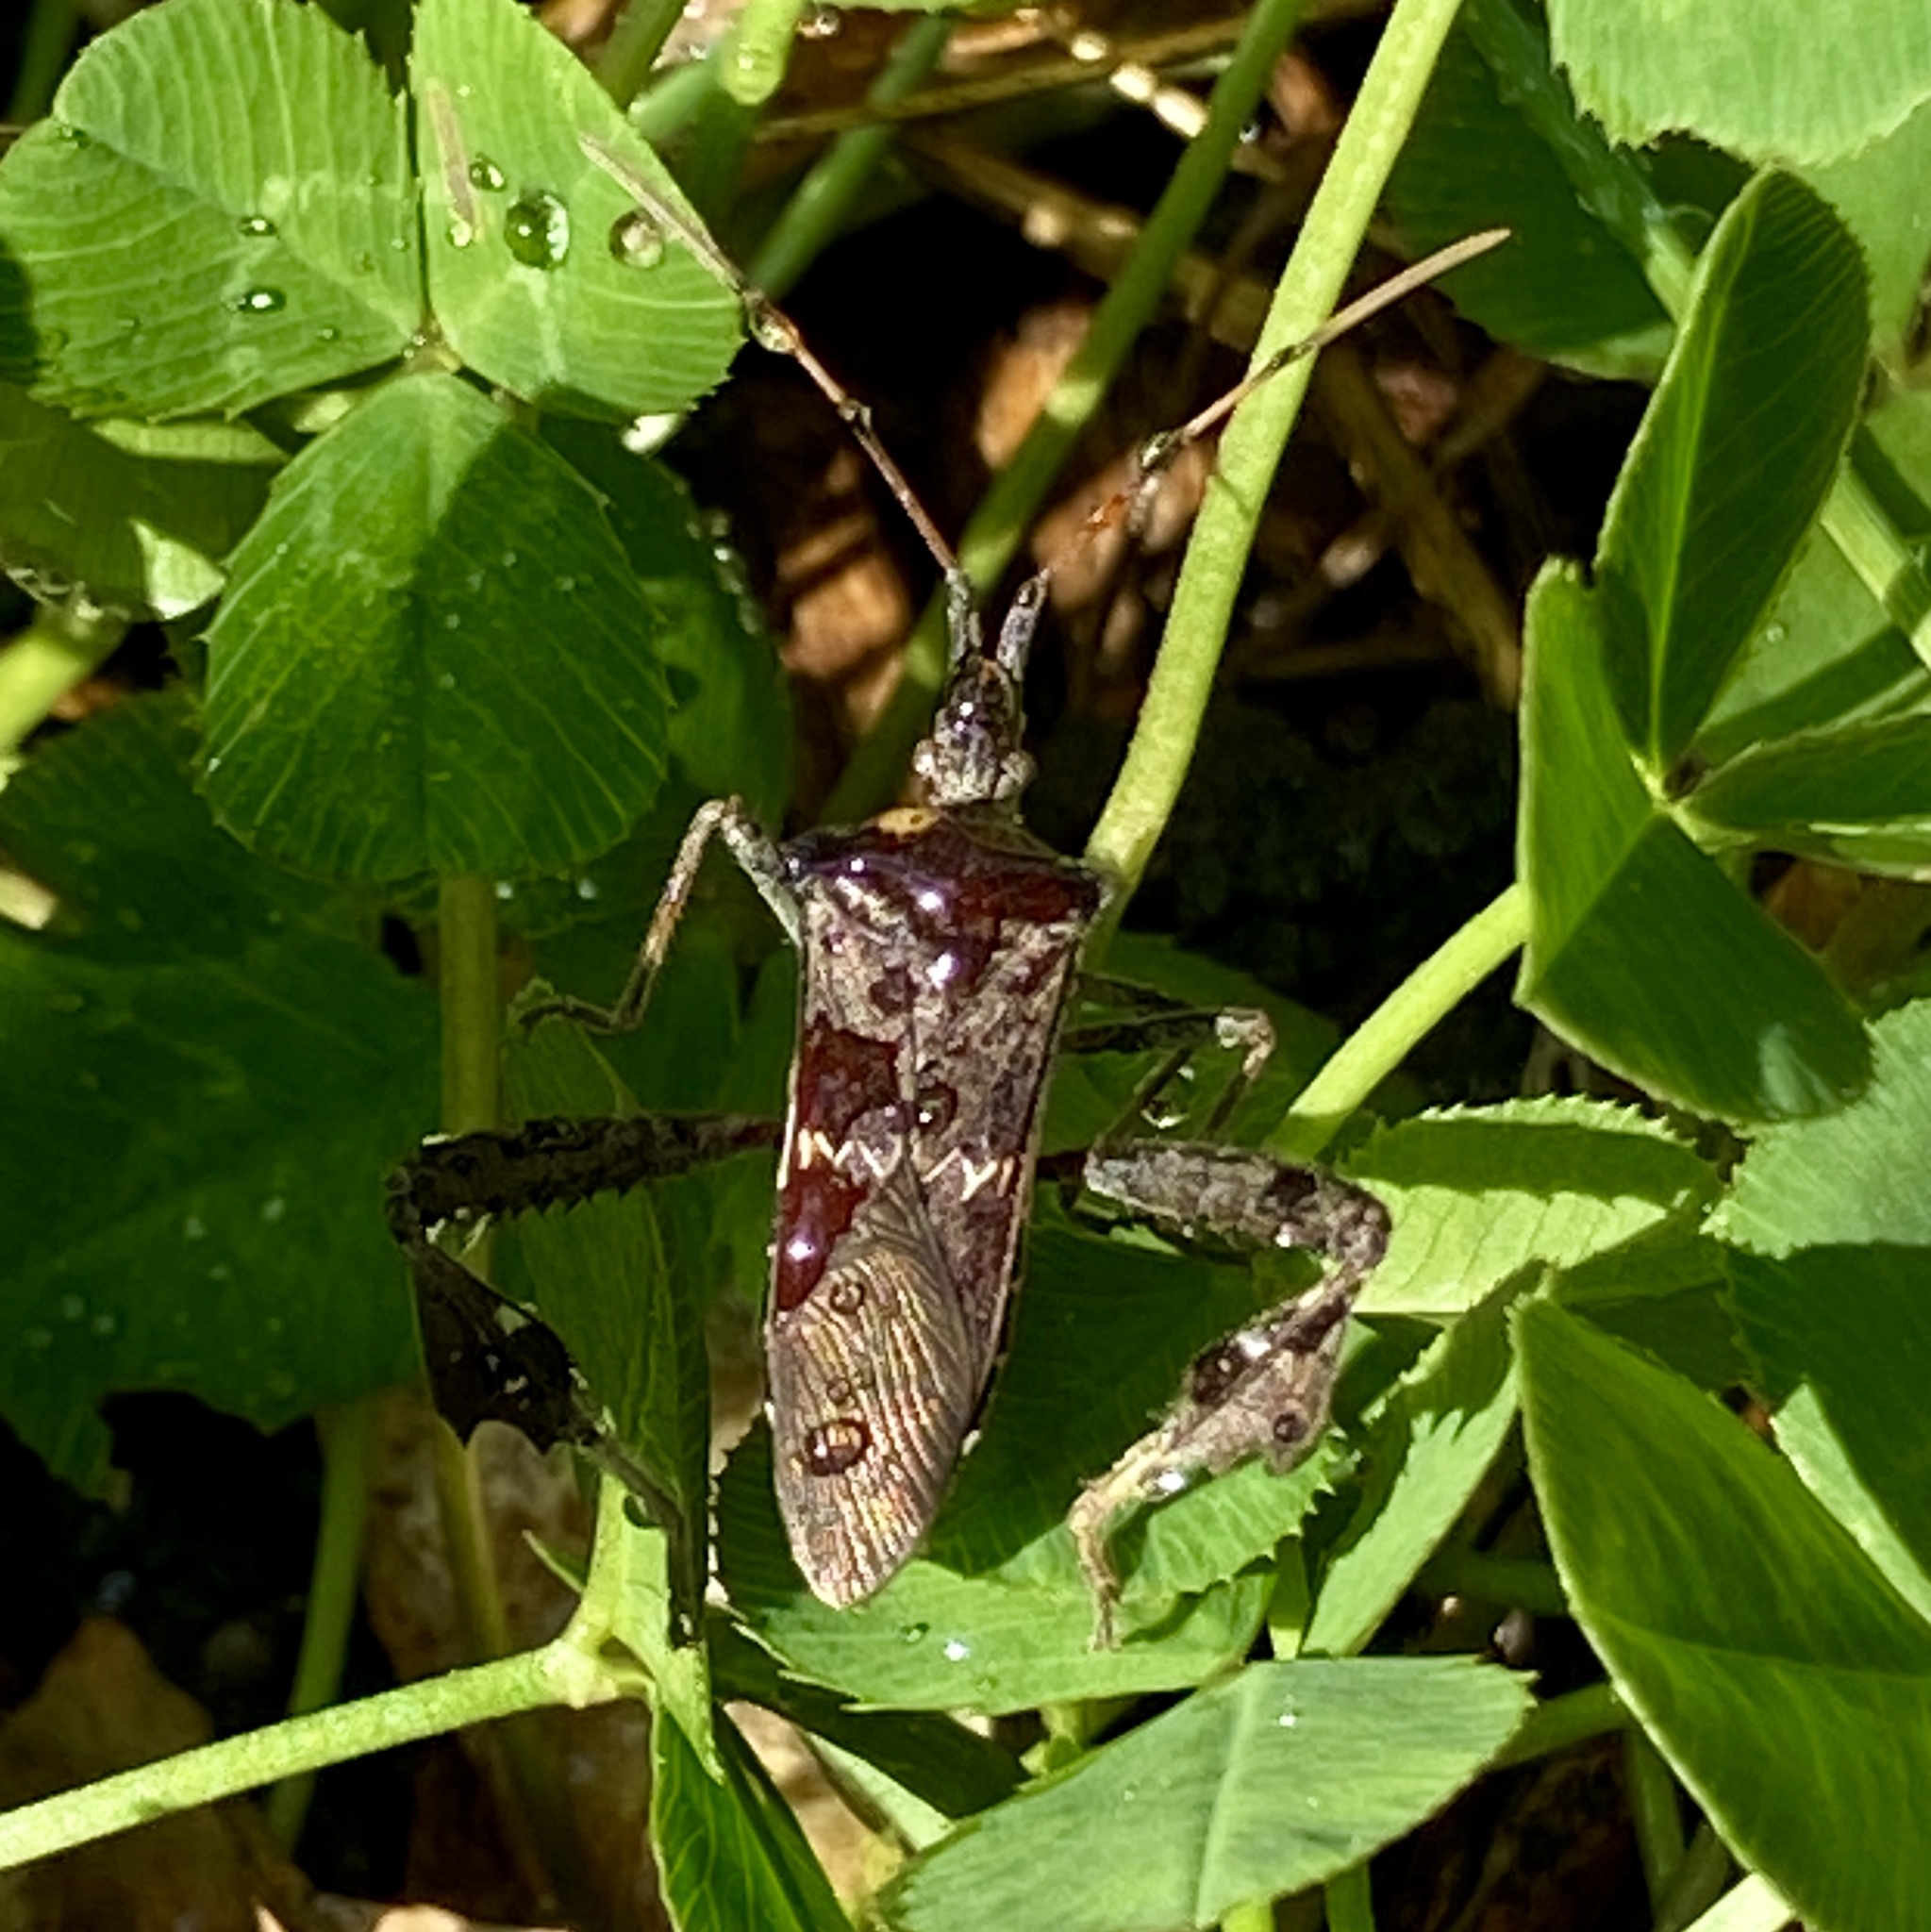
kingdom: Animalia
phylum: Arthropoda
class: Insecta
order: Hemiptera
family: Coreidae
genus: Leptoglossus
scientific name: Leptoglossus zonatus
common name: Large-legged bug
